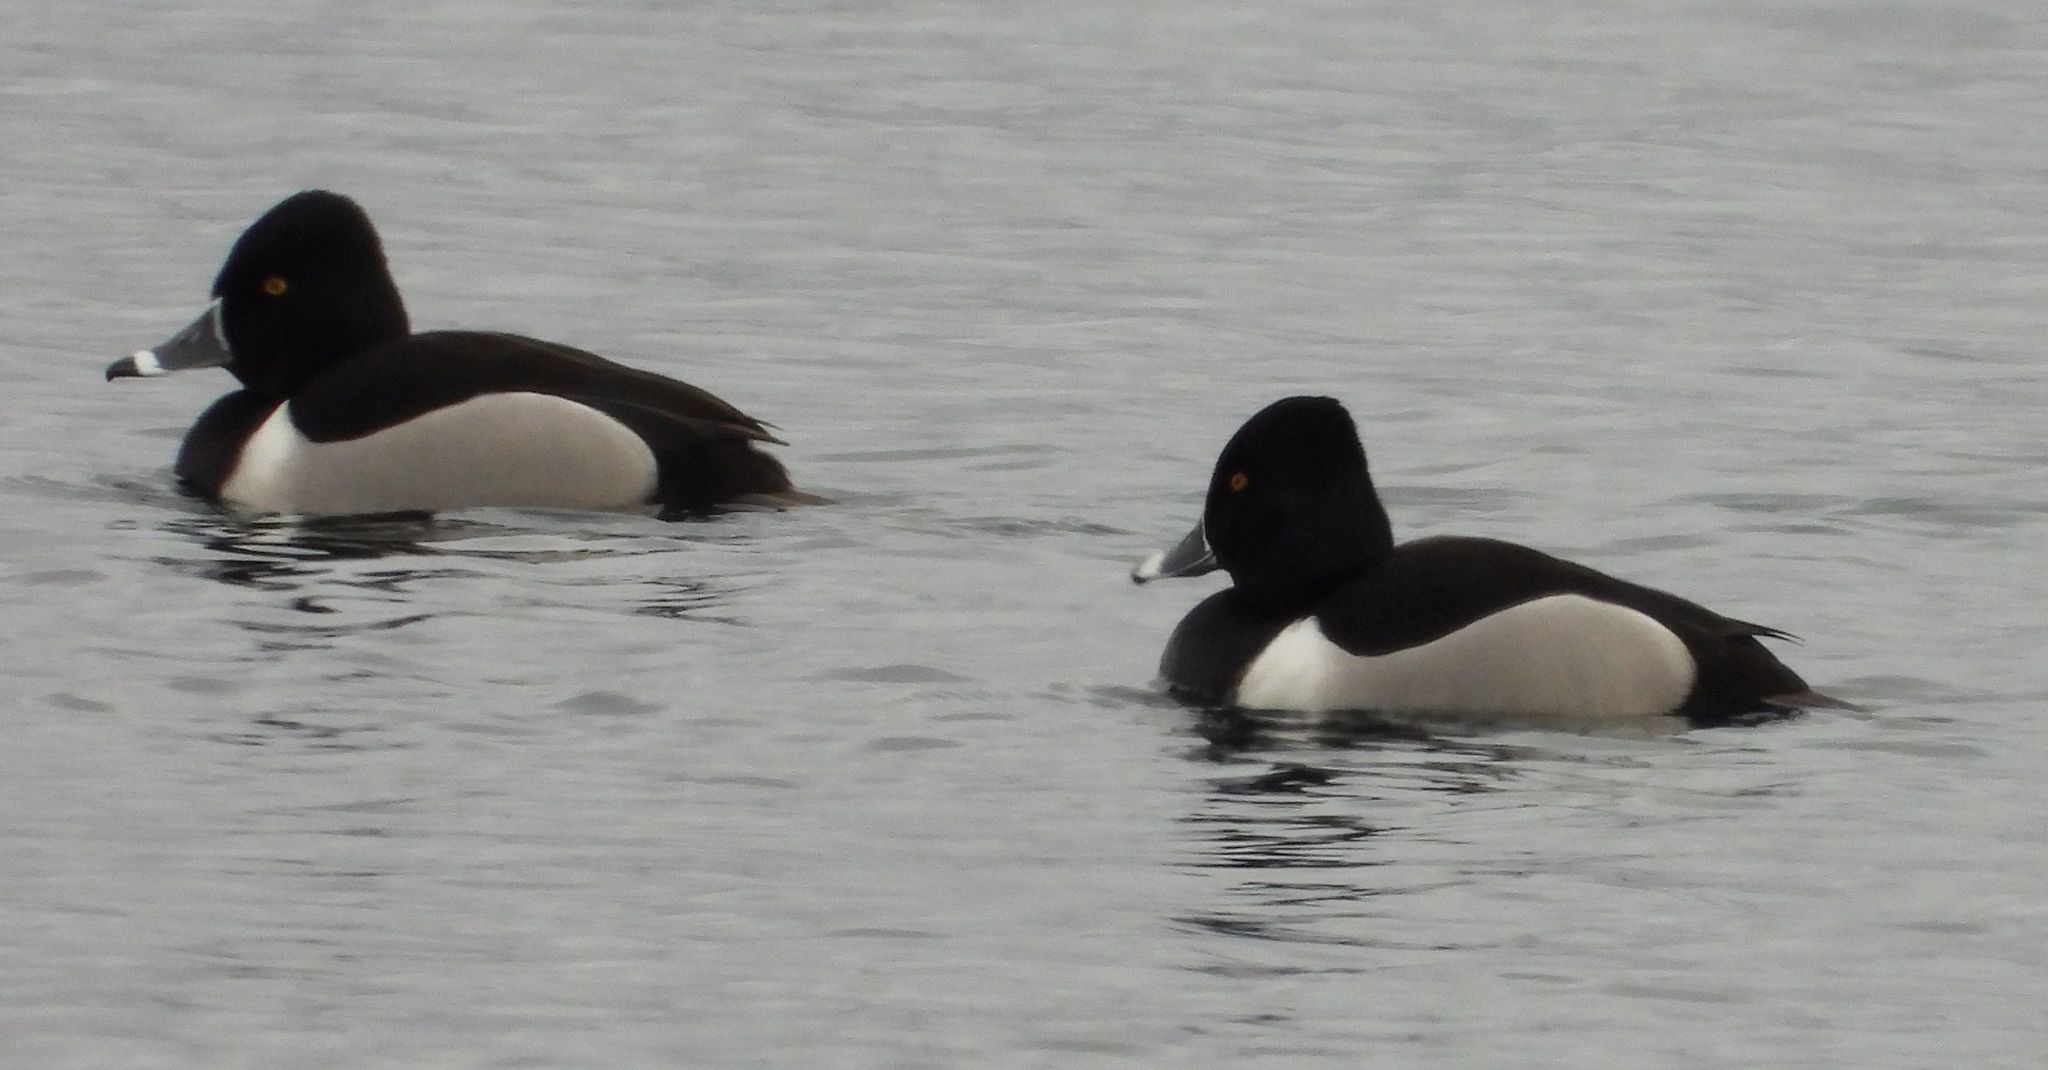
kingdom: Animalia
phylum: Chordata
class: Aves
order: Anseriformes
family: Anatidae
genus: Aythya
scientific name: Aythya collaris
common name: Ring-necked duck
